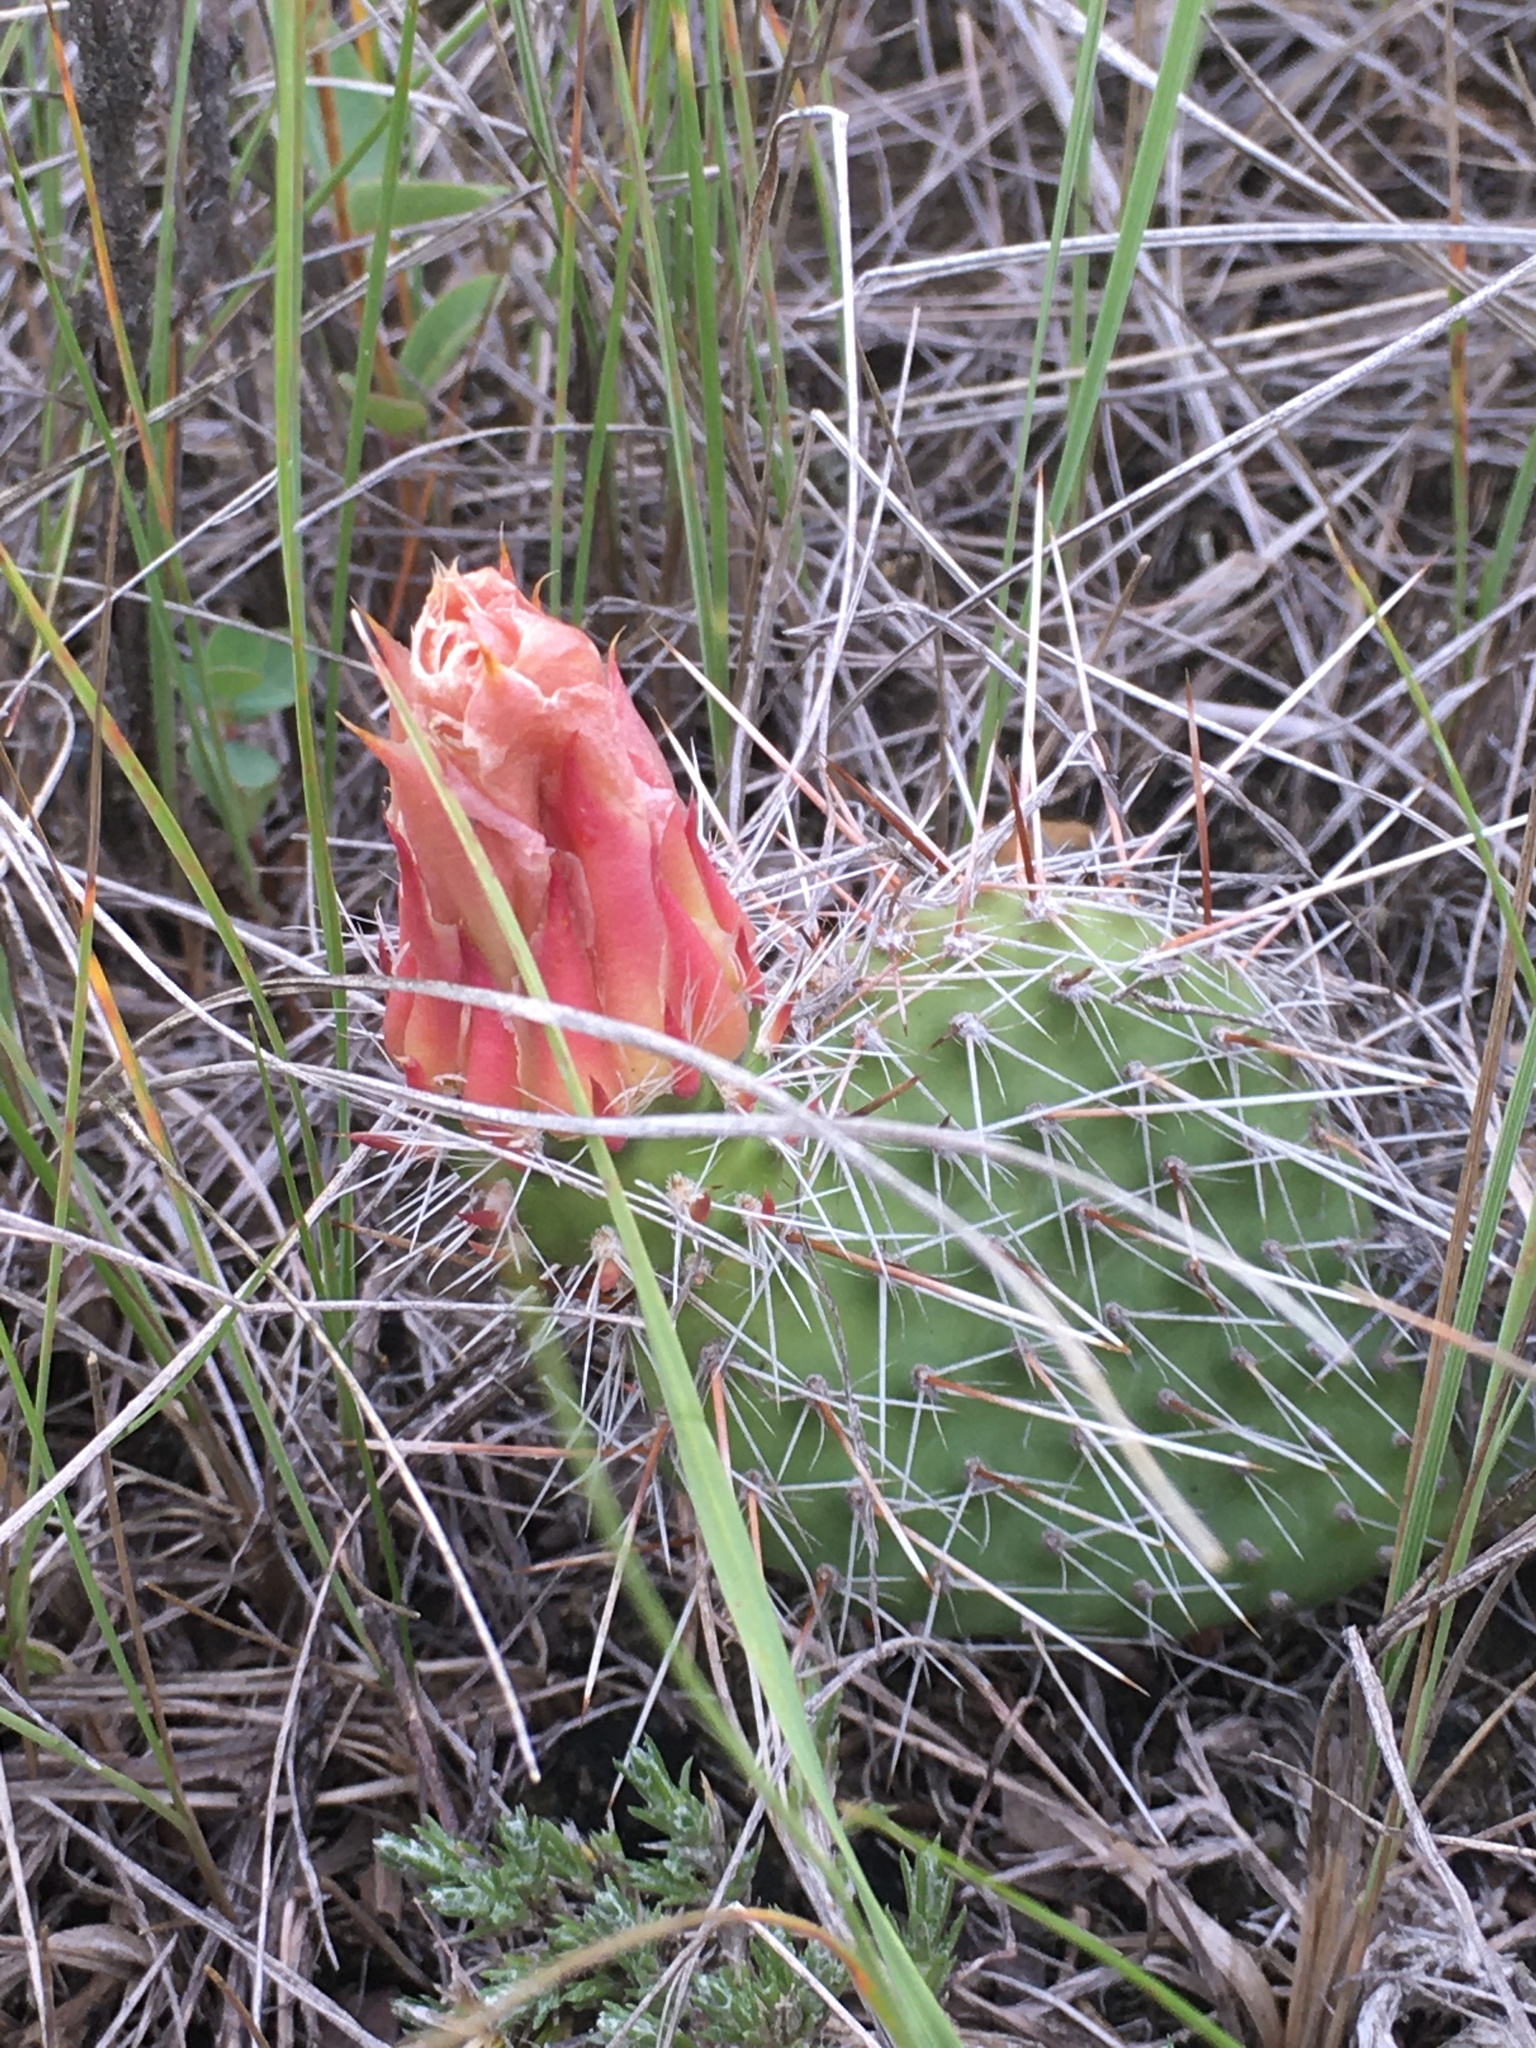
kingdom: Plantae
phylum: Tracheophyta
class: Magnoliopsida
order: Caryophyllales
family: Cactaceae
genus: Opuntia
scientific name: Opuntia polyacantha
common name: Plains prickly-pear
